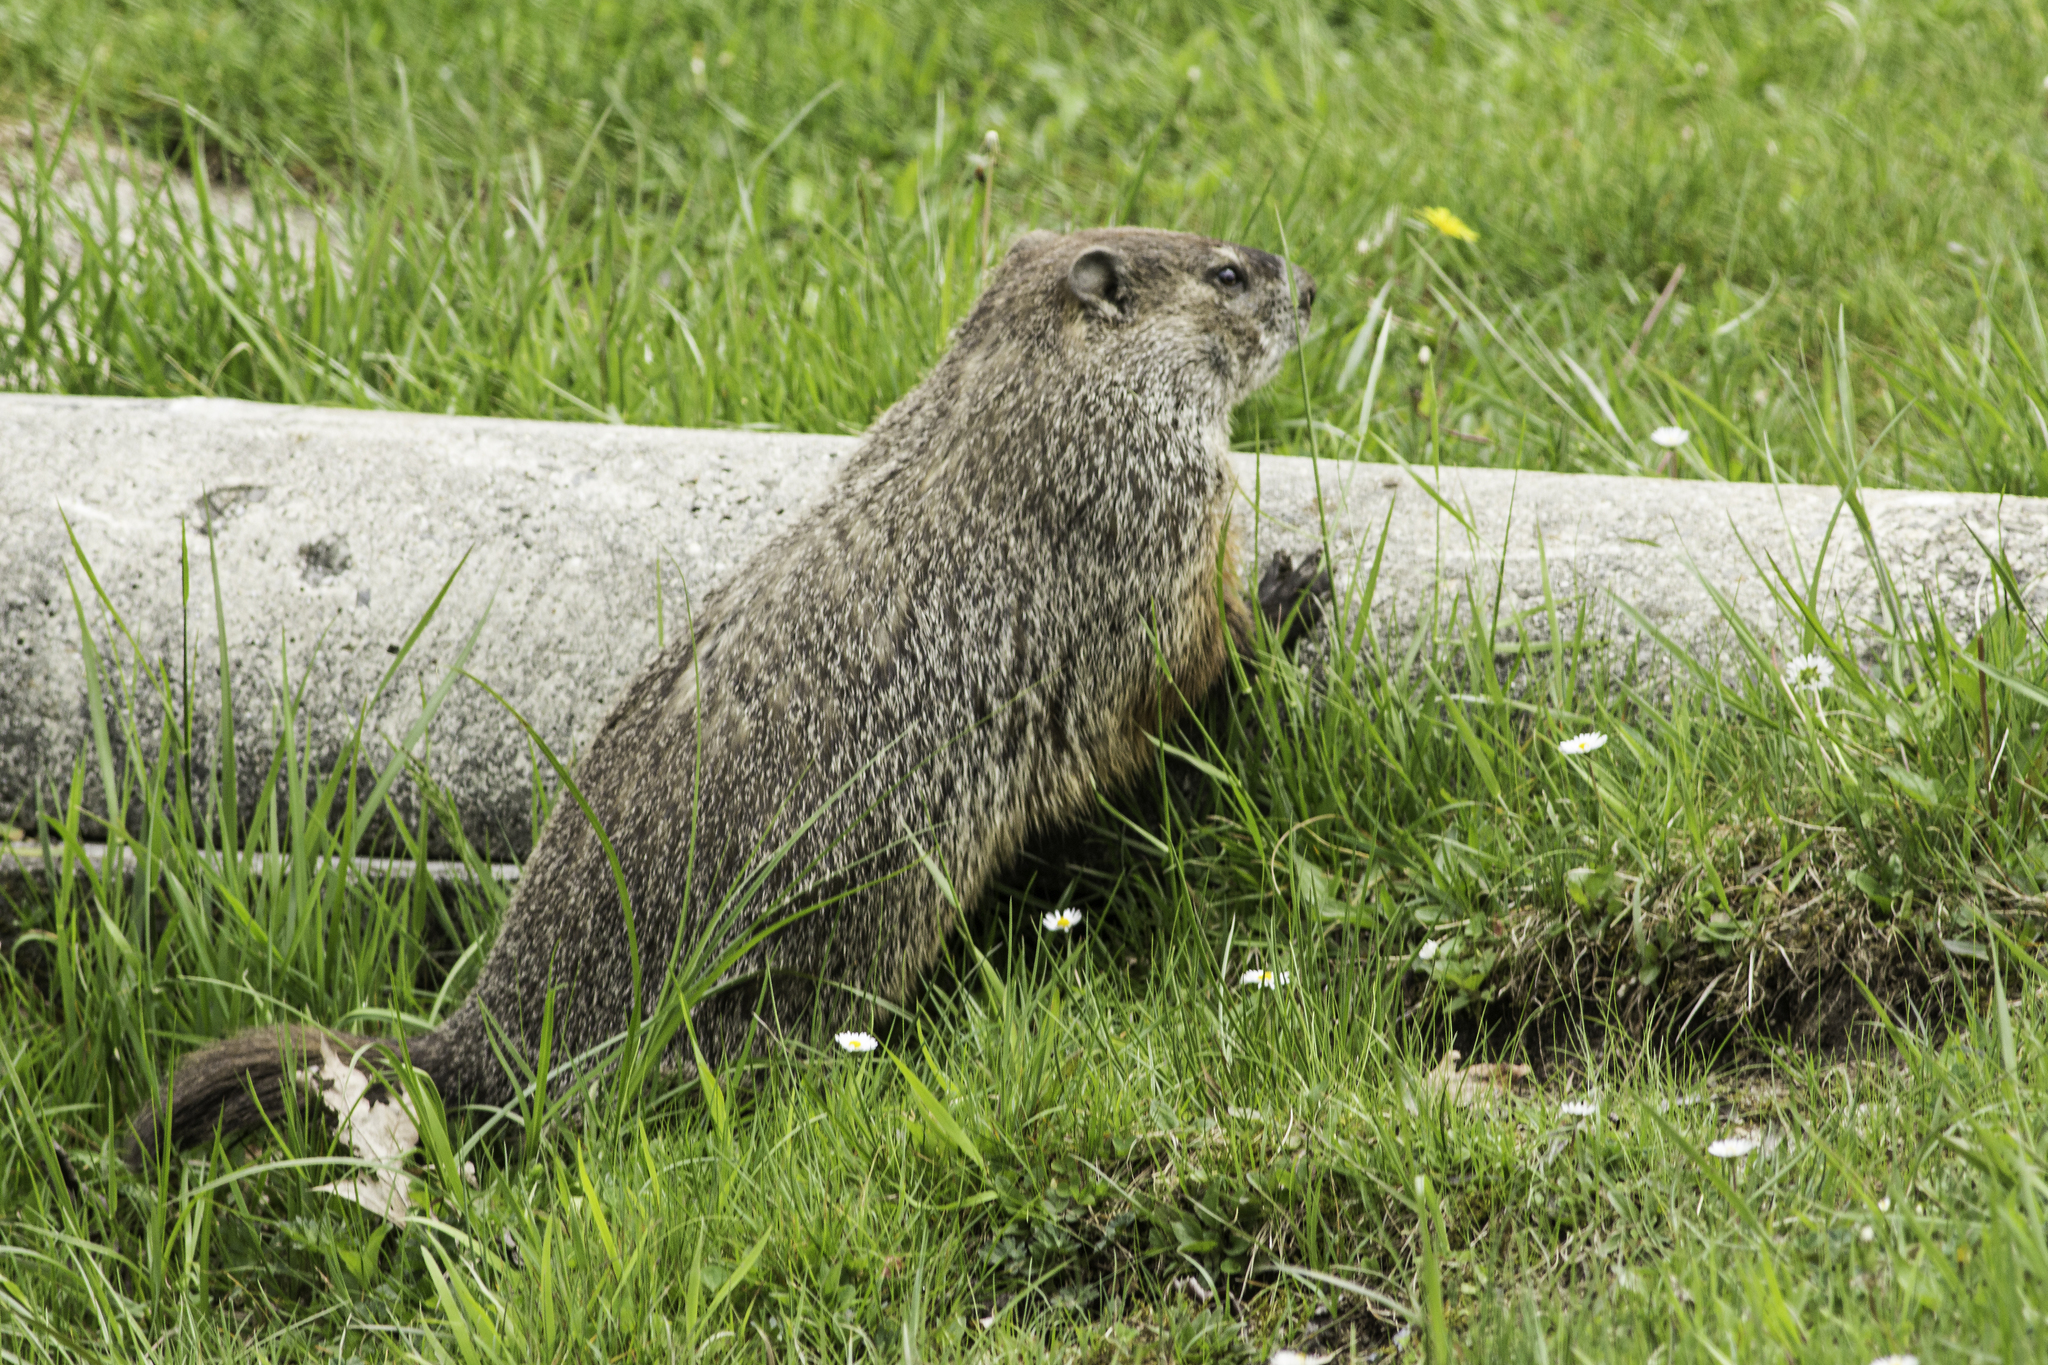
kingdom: Animalia
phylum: Chordata
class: Mammalia
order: Rodentia
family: Sciuridae
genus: Marmota
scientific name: Marmota monax
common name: Groundhog
